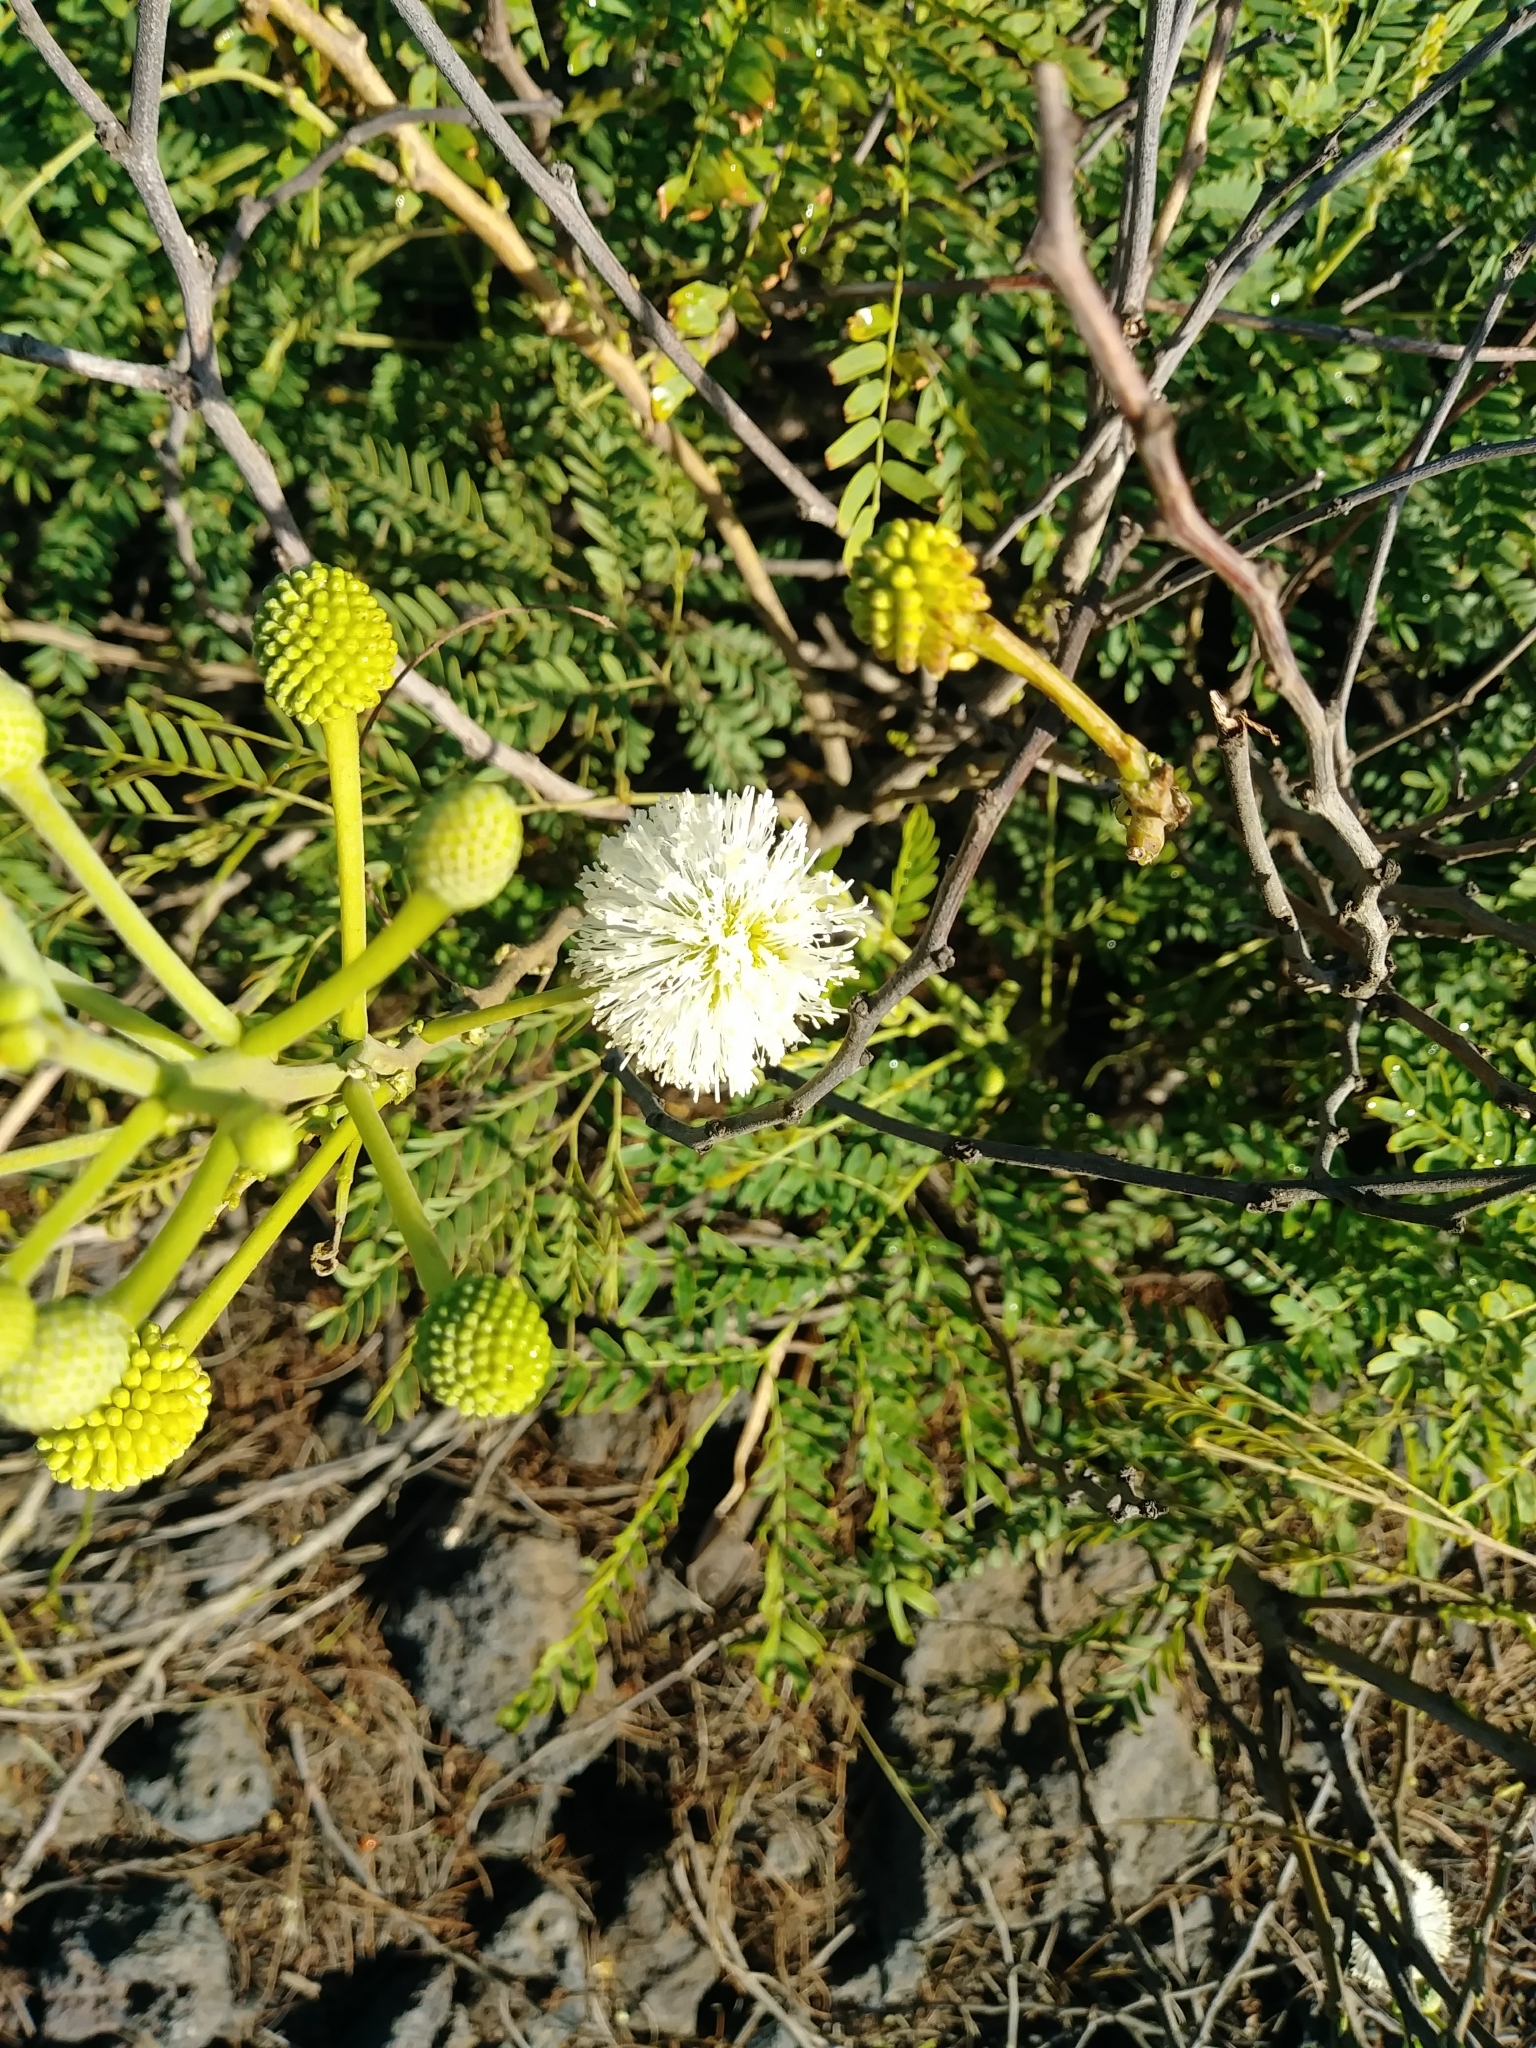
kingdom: Plantae
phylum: Tracheophyta
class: Magnoliopsida
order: Fabales
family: Fabaceae
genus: Leucaena
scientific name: Leucaena leucocephala
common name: White leadtree
